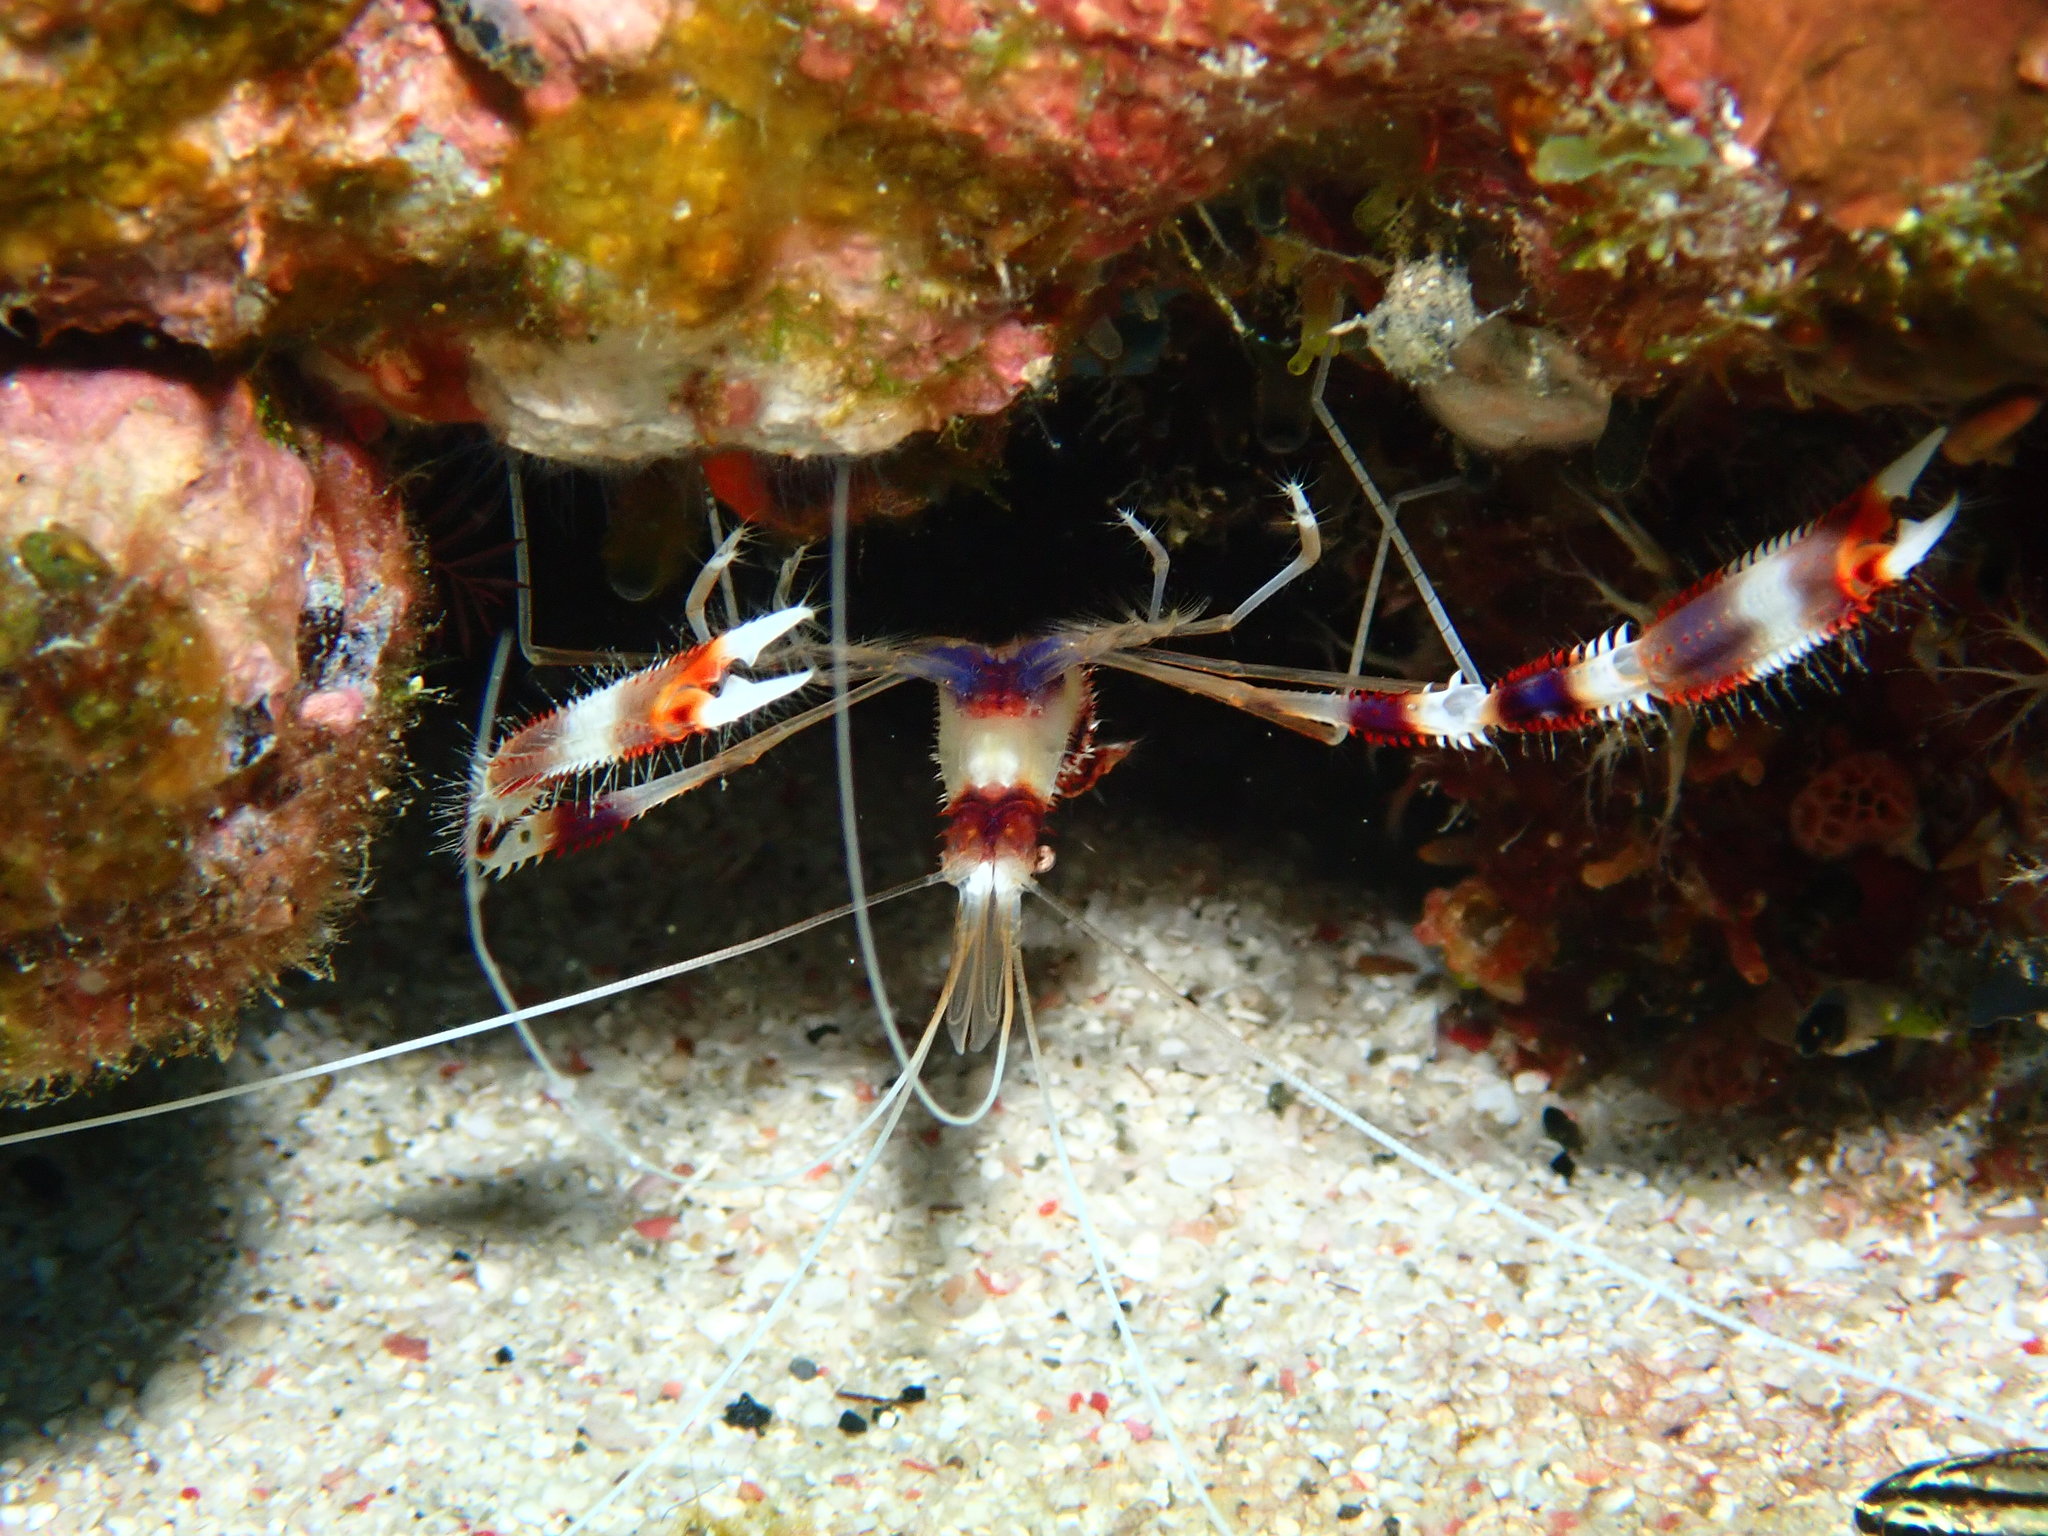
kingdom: Animalia
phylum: Arthropoda
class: Malacostraca
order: Decapoda
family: Stenopodidae
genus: Stenopus
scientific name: Stenopus hispidus
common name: Banded coral shrimp
